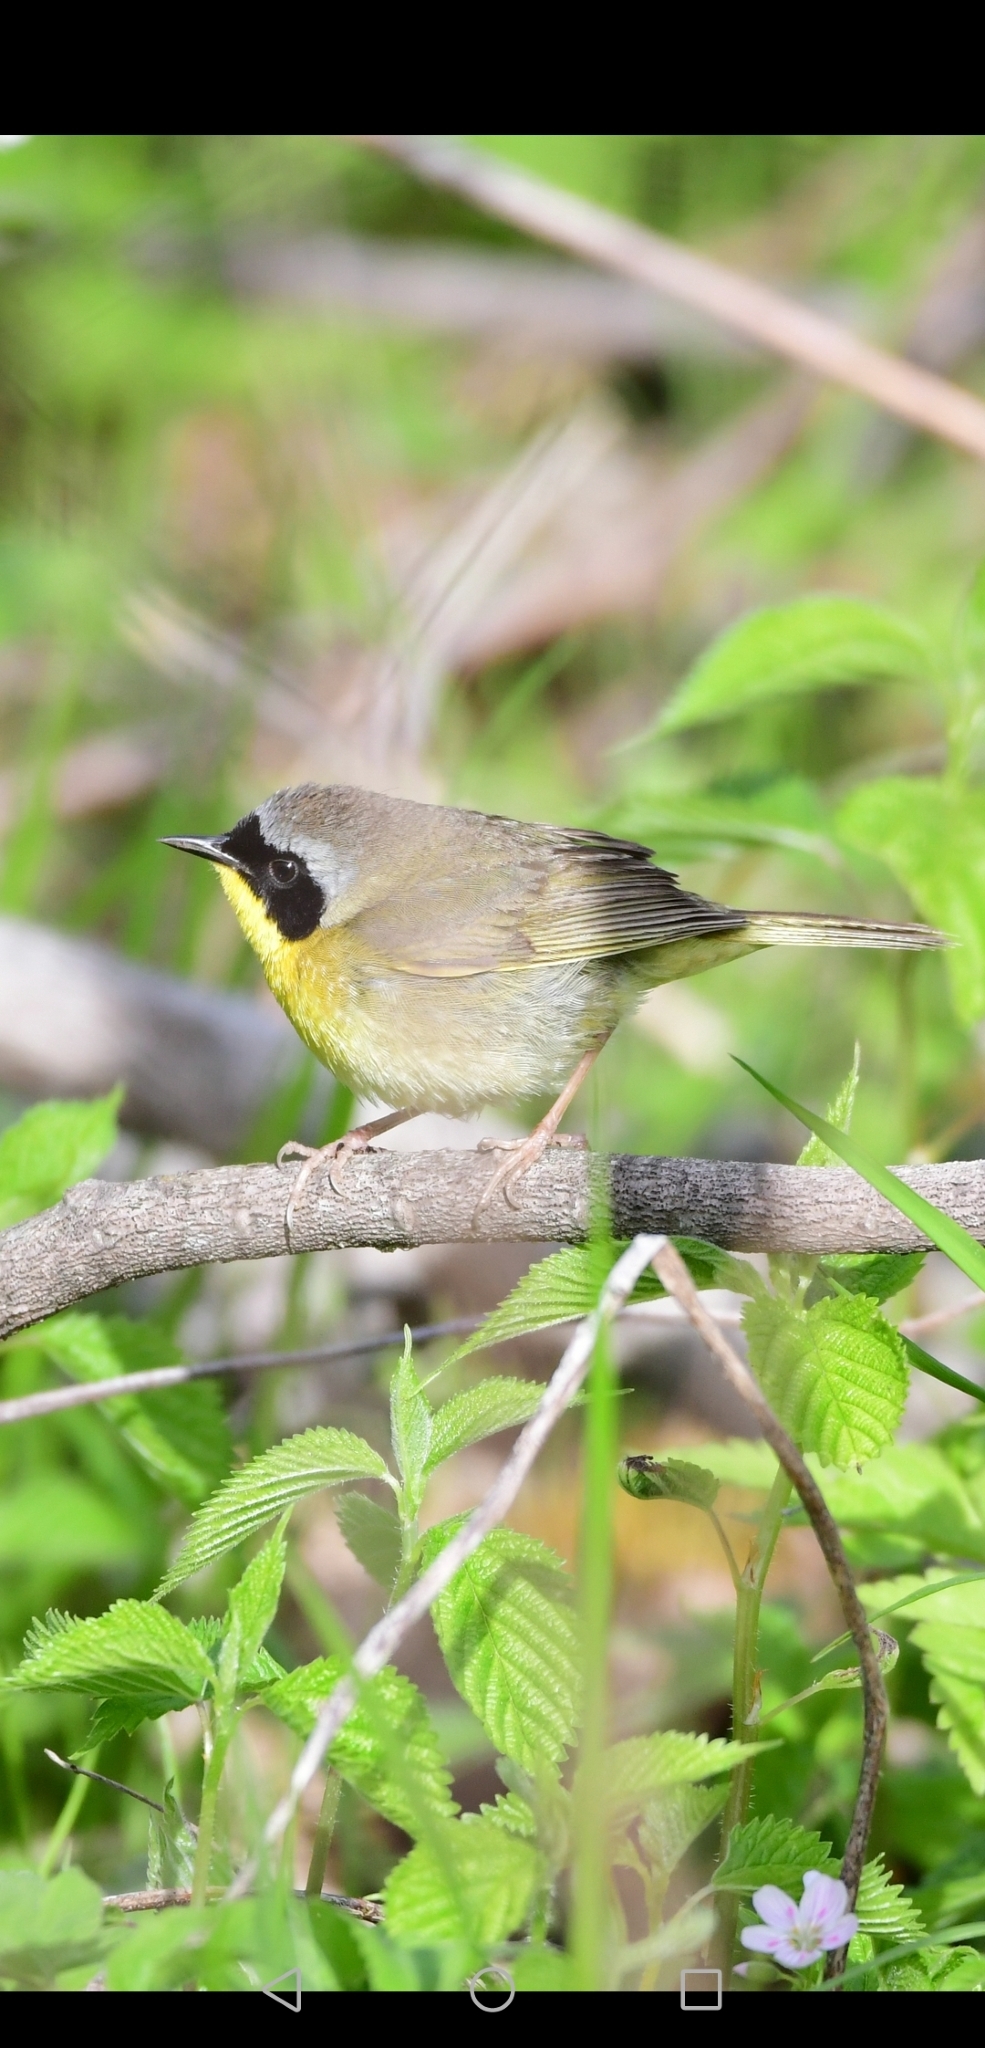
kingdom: Animalia
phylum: Chordata
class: Aves
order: Passeriformes
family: Parulidae
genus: Geothlypis
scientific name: Geothlypis trichas
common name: Common yellowthroat
